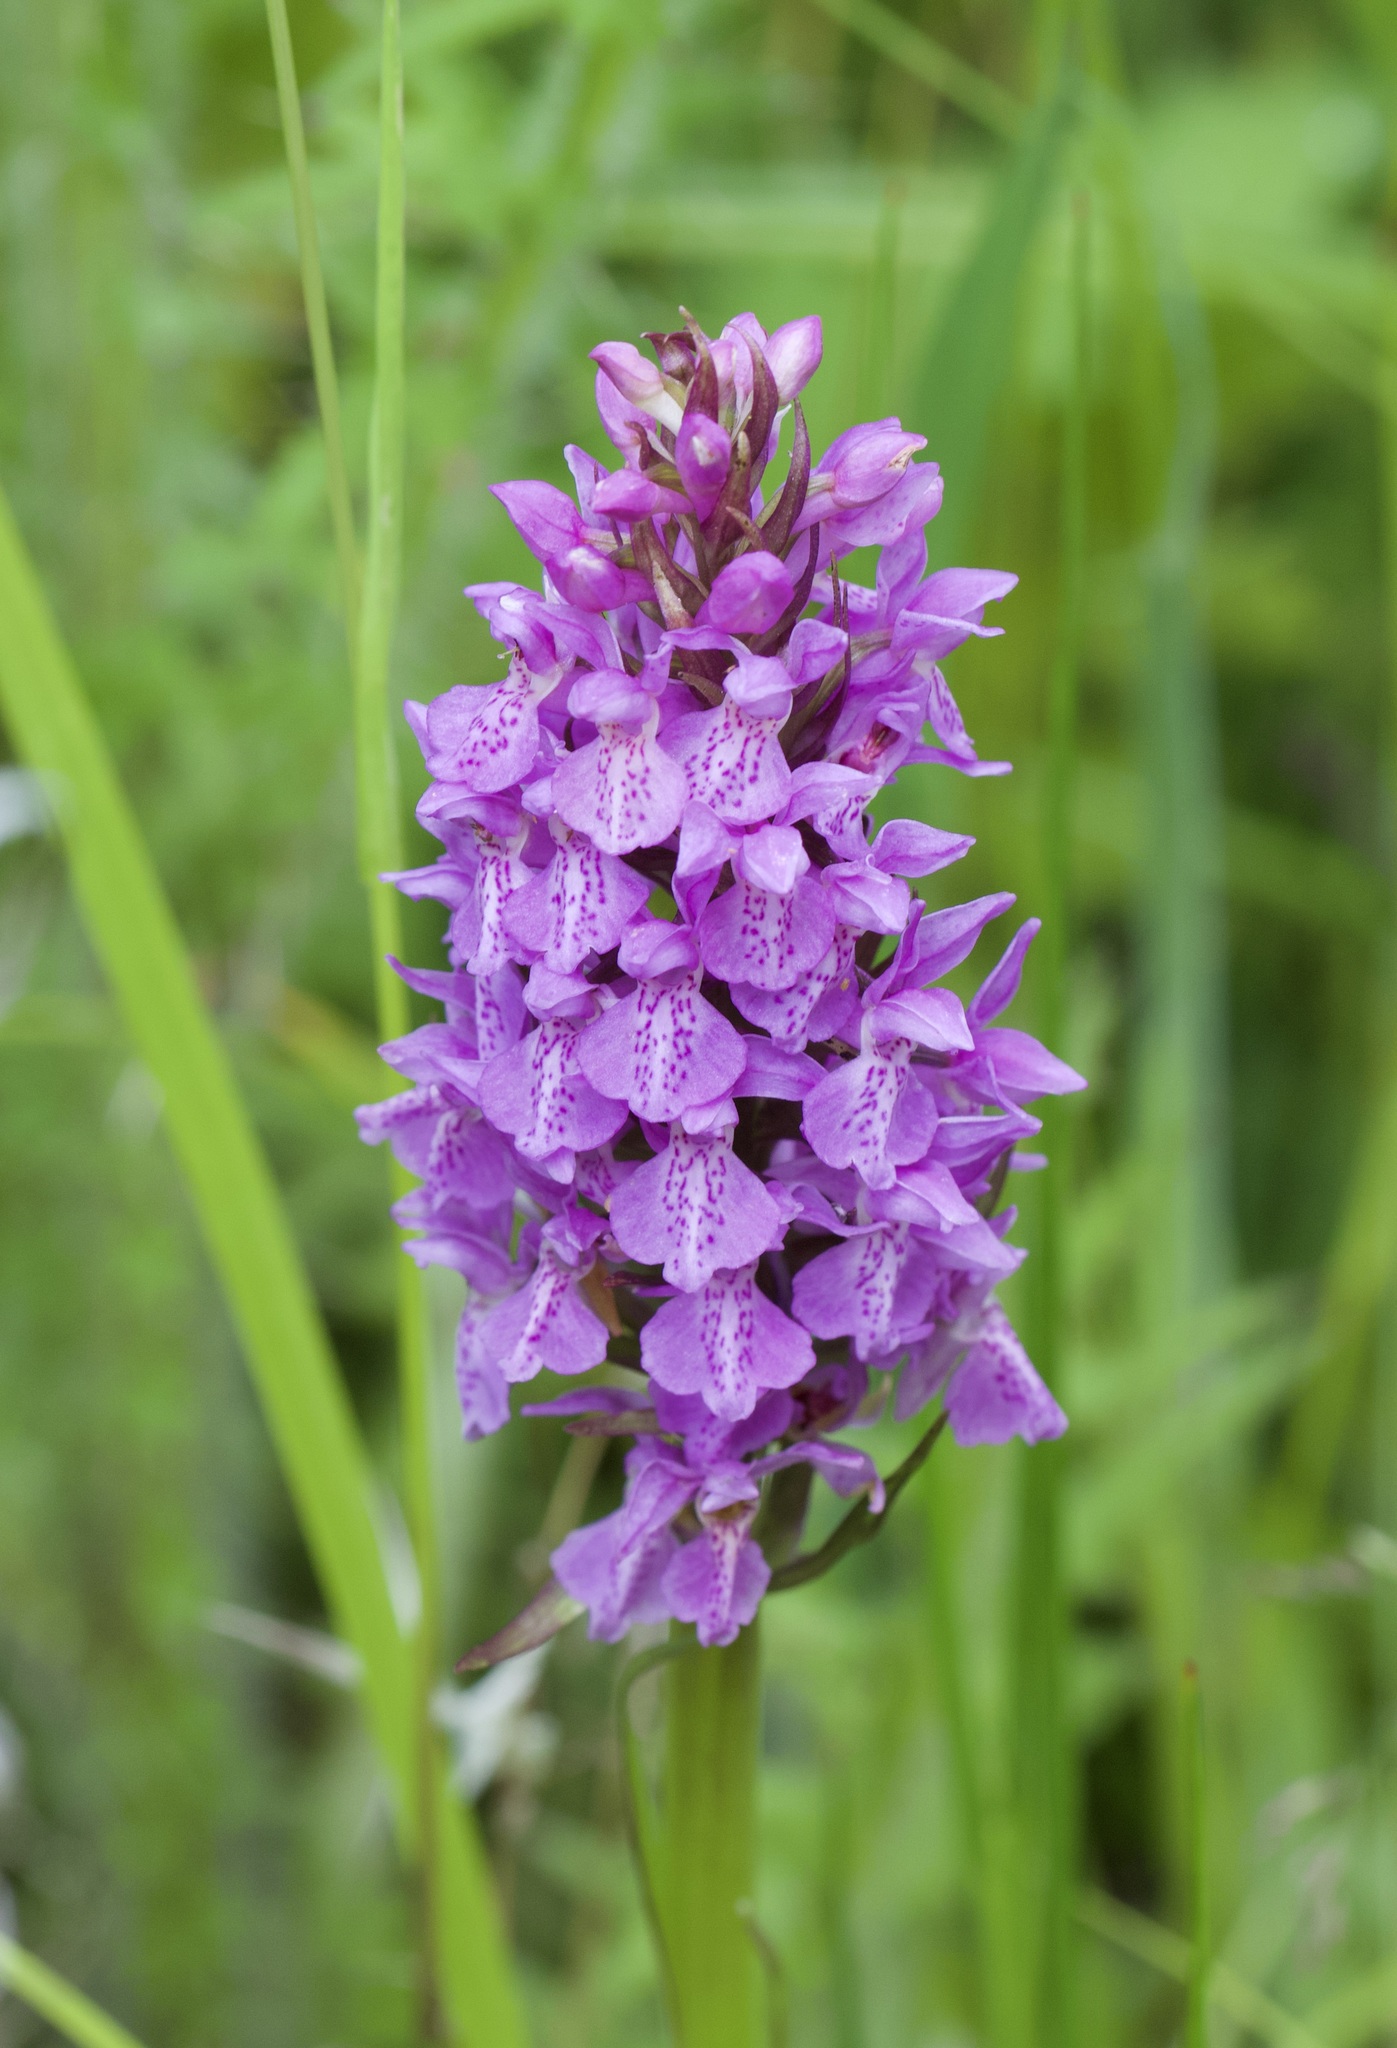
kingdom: Plantae
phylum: Tracheophyta
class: Liliopsida
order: Asparagales
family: Orchidaceae
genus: Dactylorhiza
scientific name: Dactylorhiza majalis
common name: Marsh orchid
